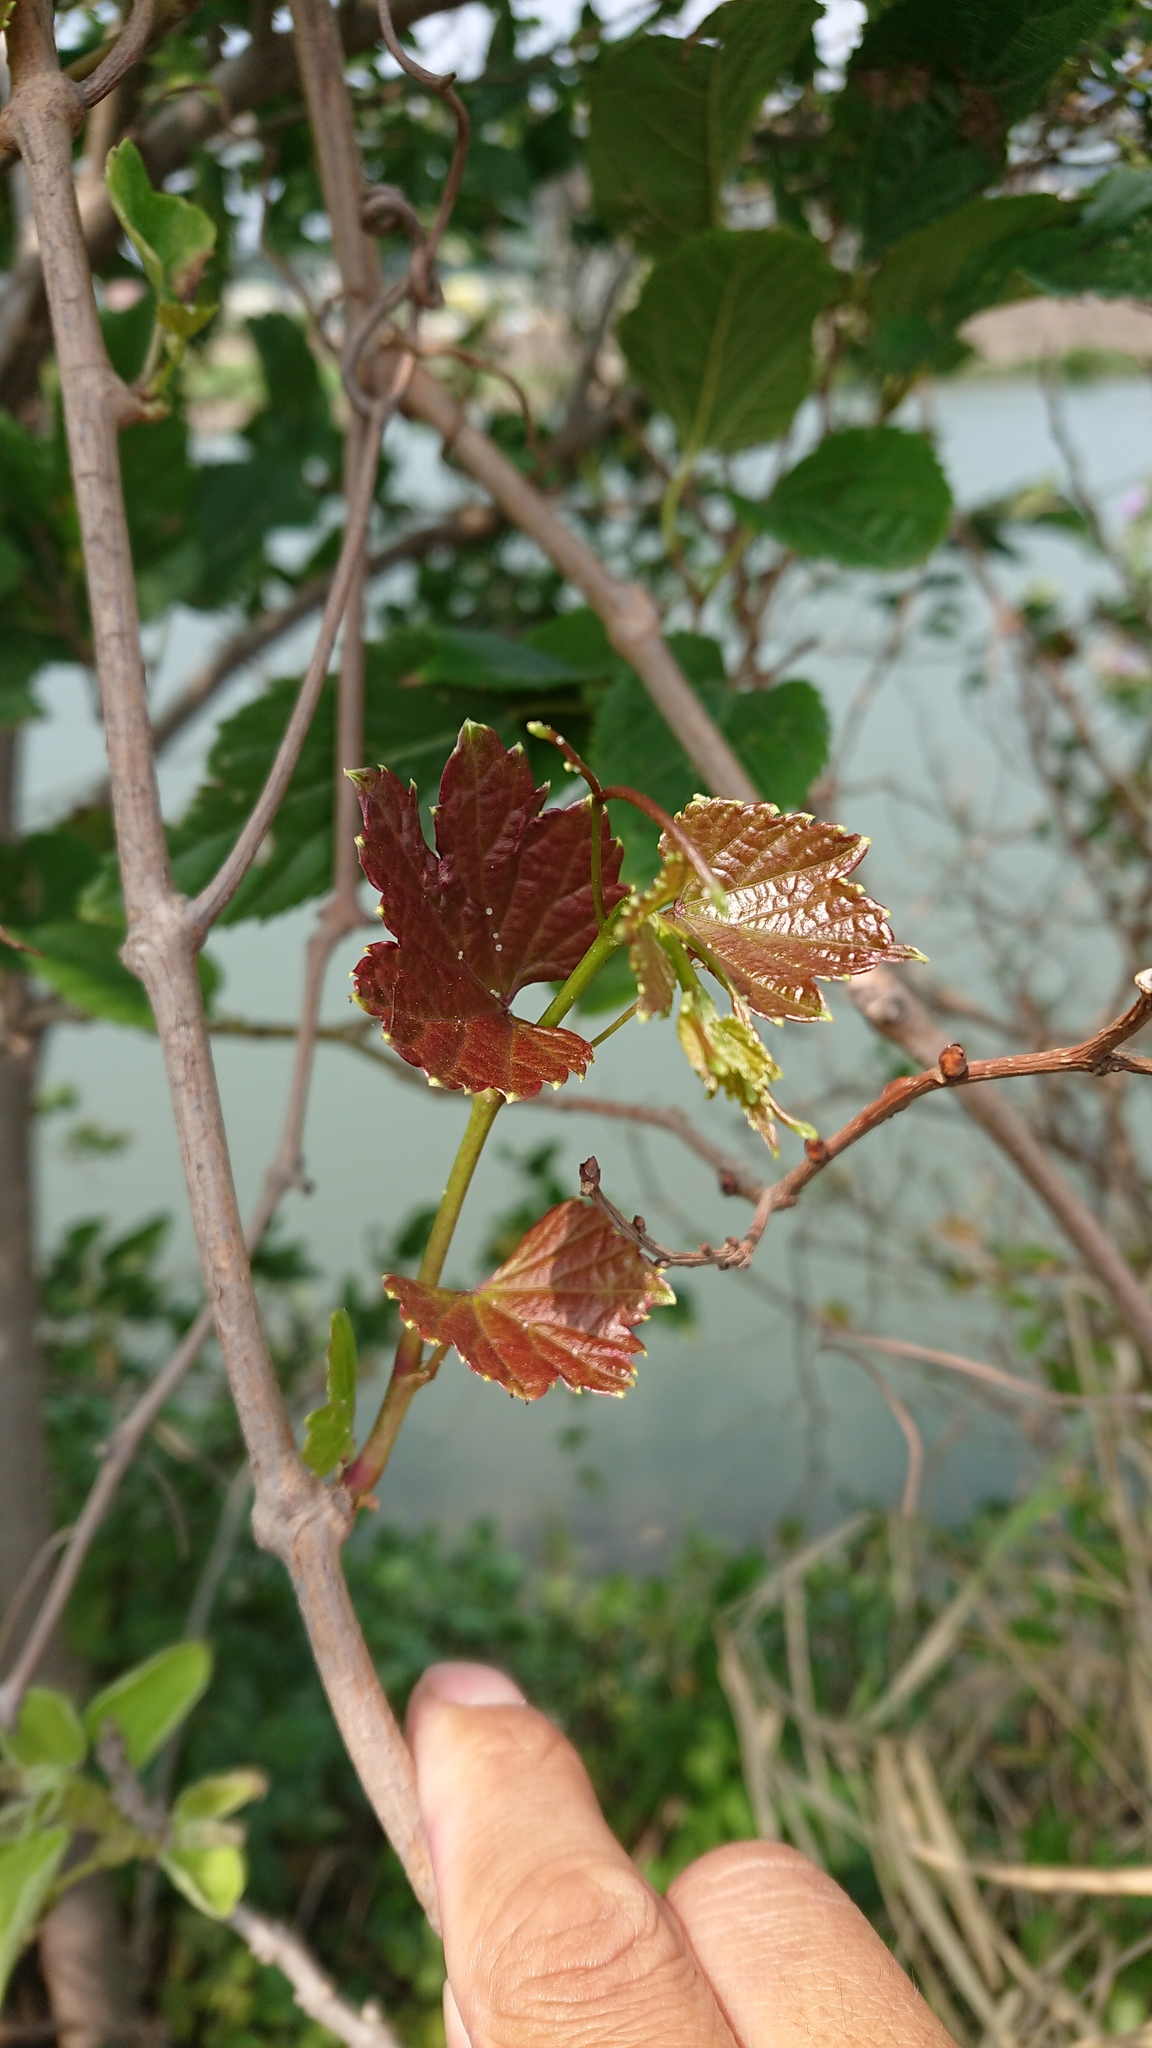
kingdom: Plantae
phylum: Tracheophyta
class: Magnoliopsida
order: Vitales
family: Vitaceae
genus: Ampelopsis
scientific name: Ampelopsis glandulosa
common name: Amur peppervine
